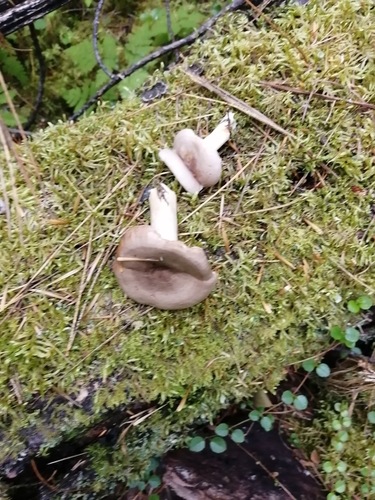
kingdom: Fungi
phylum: Basidiomycota
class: Agaricomycetes
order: Russulales
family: Russulaceae
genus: Lactarius
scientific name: Lactarius trivialis
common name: Tacked milkcap
